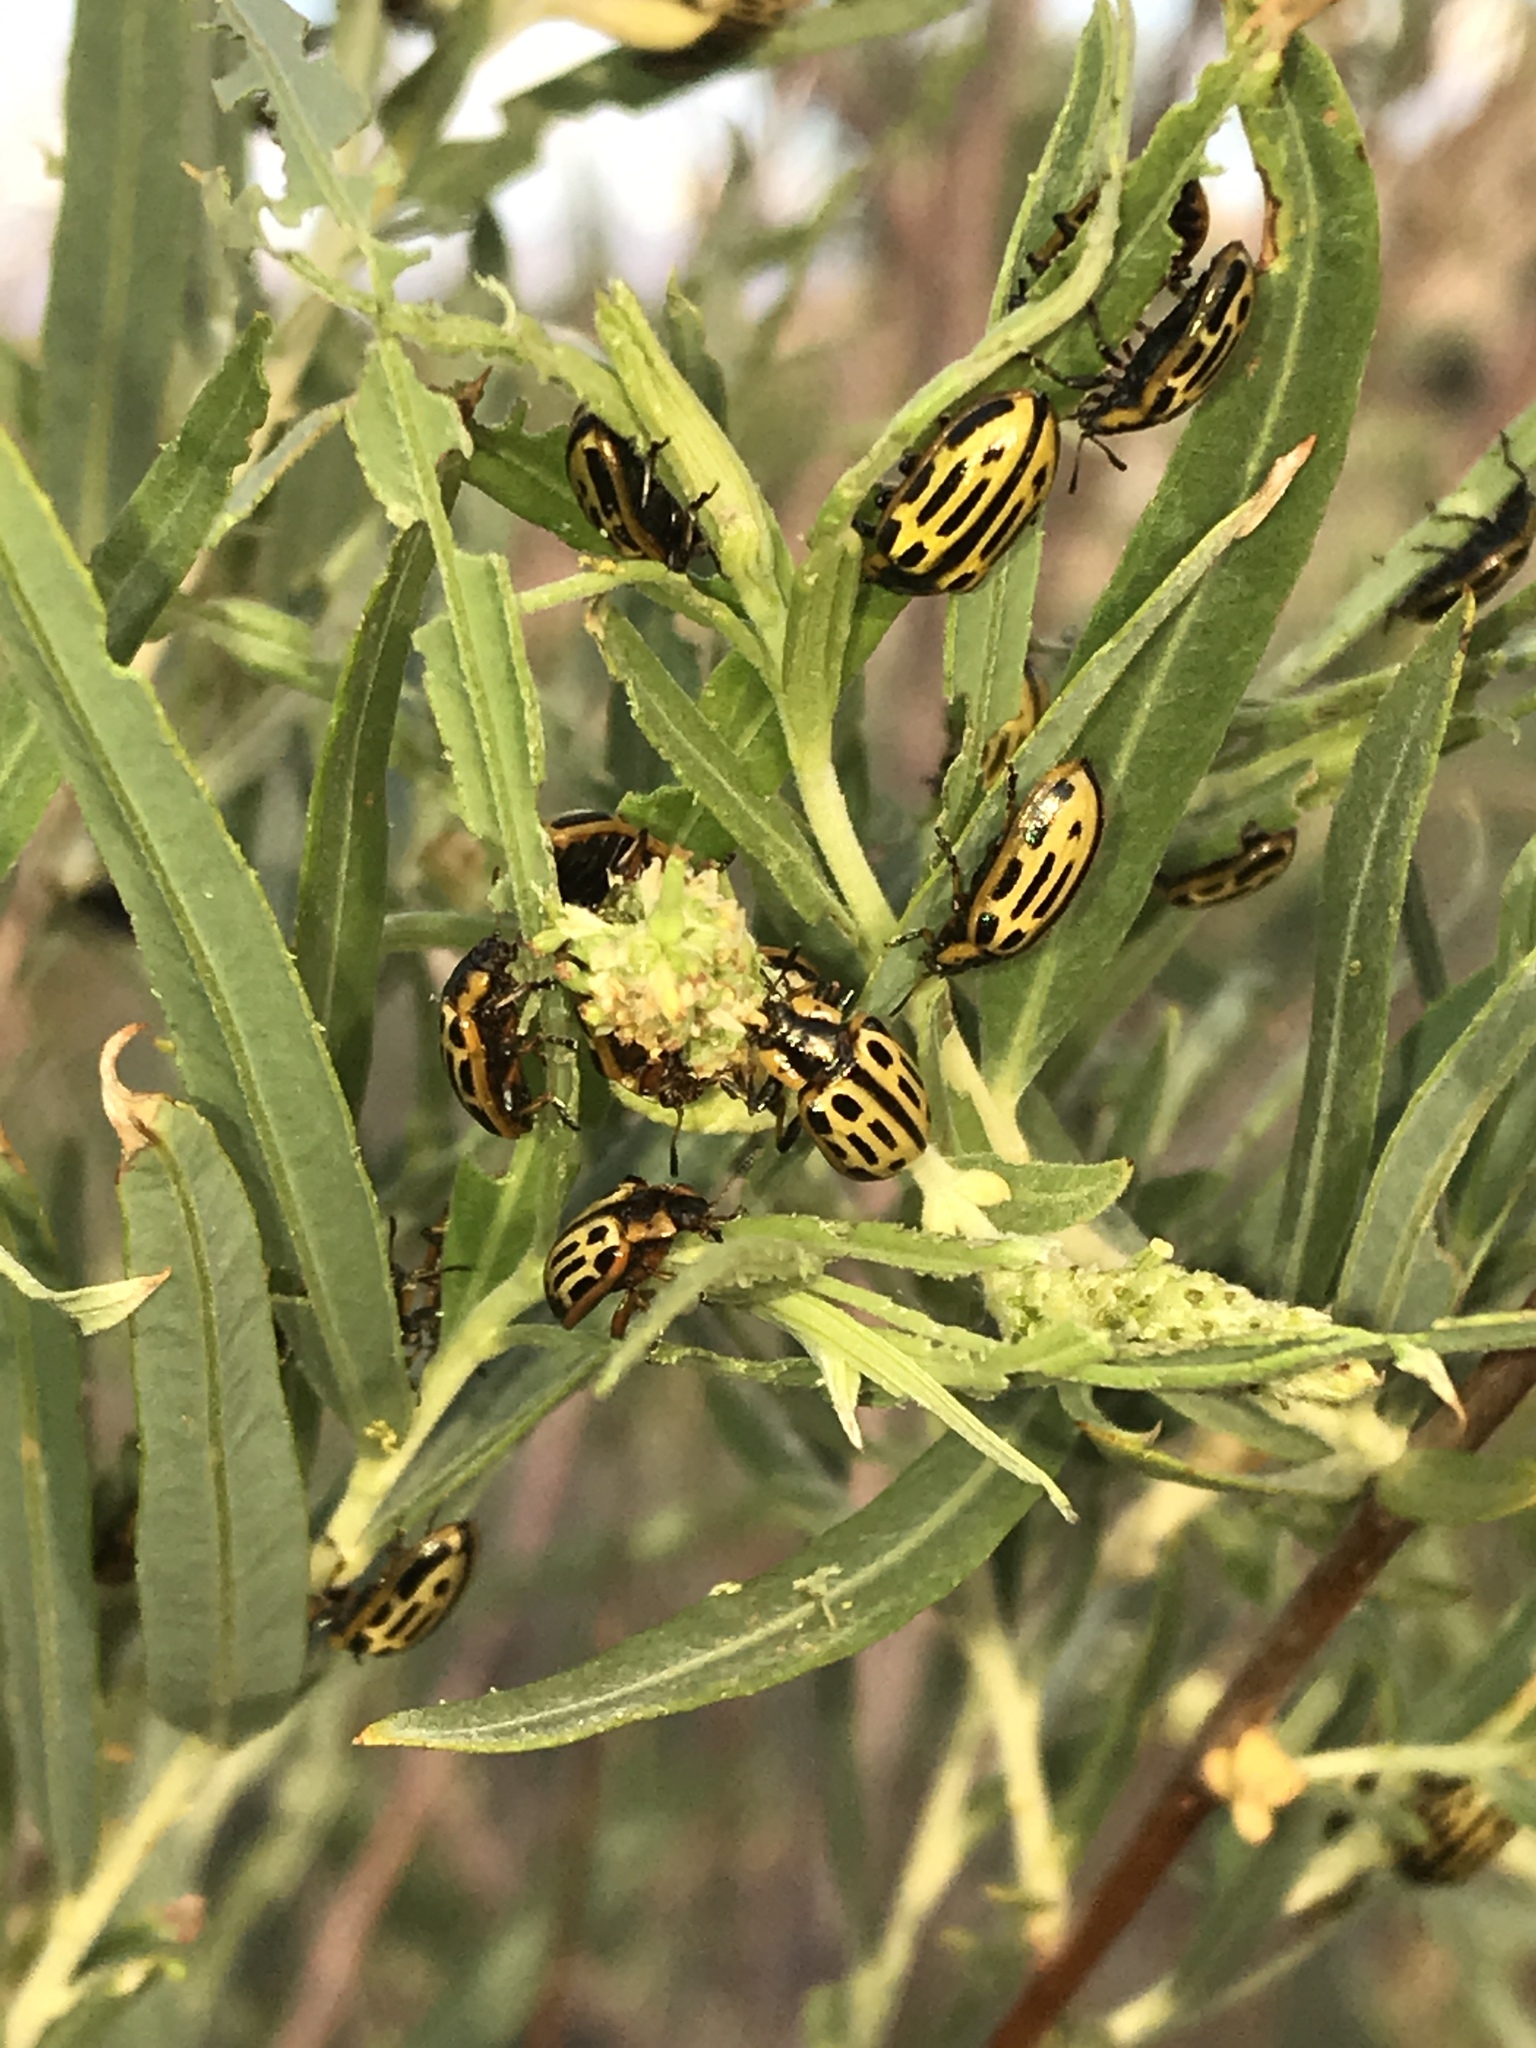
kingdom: Animalia
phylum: Arthropoda
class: Insecta
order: Coleoptera
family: Chrysomelidae
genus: Aethiopocassis
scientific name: Aethiopocassis scripta
